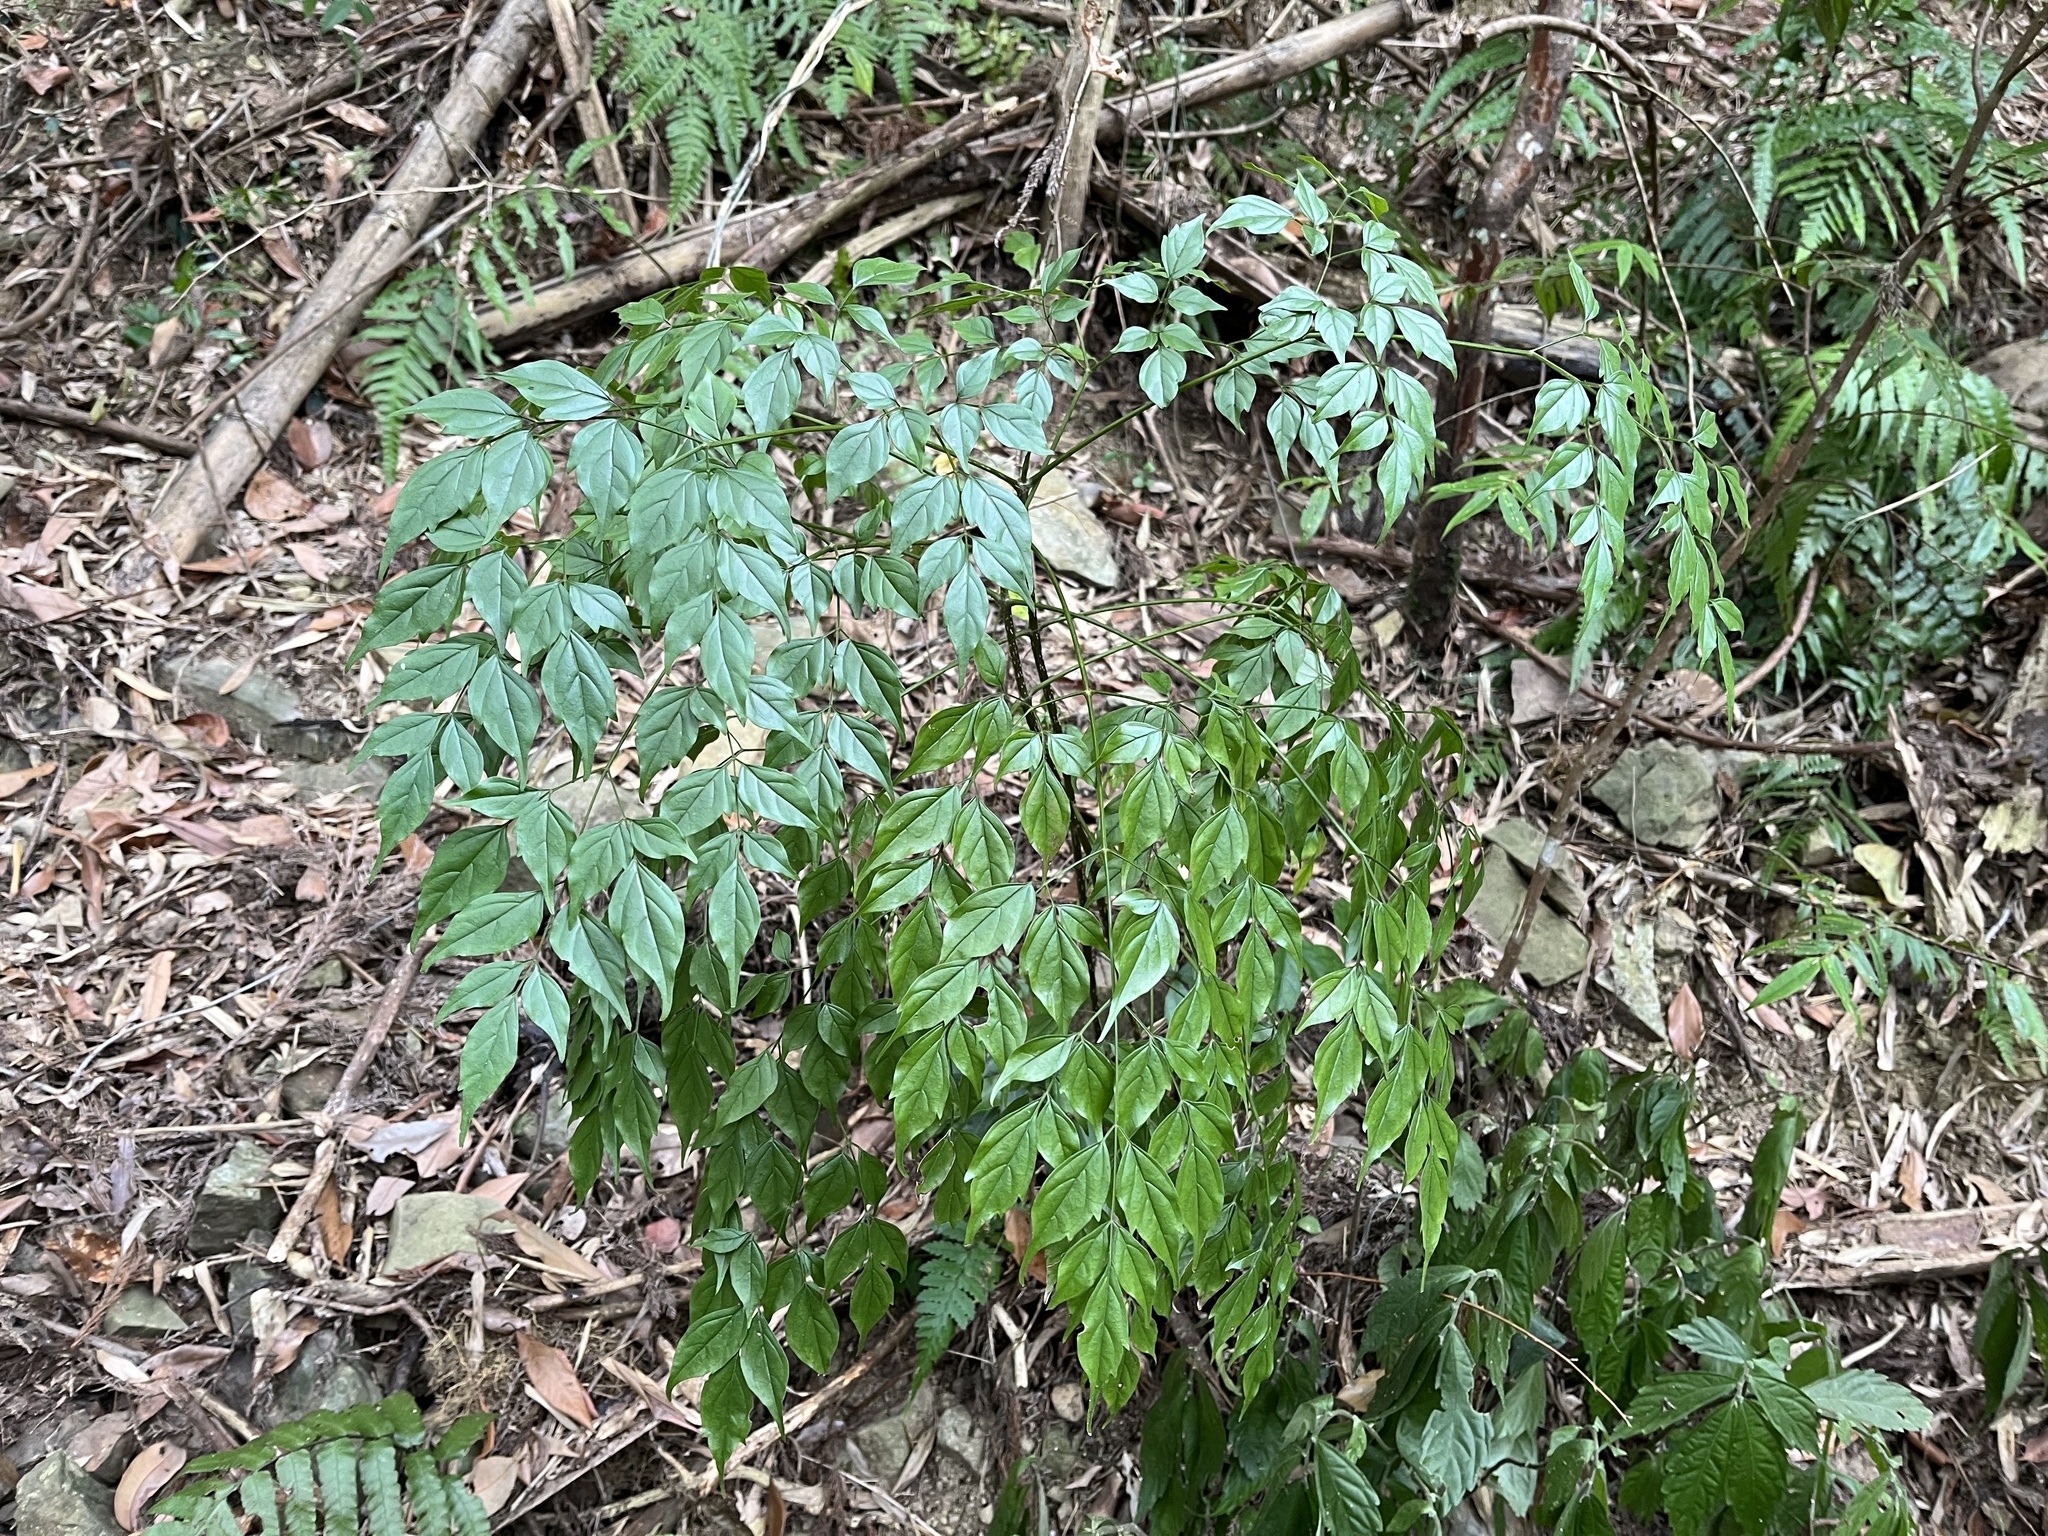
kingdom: Plantae
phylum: Tracheophyta
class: Magnoliopsida
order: Lamiales
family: Bignoniaceae
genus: Radermachera
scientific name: Radermachera sinica
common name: China doll plant
